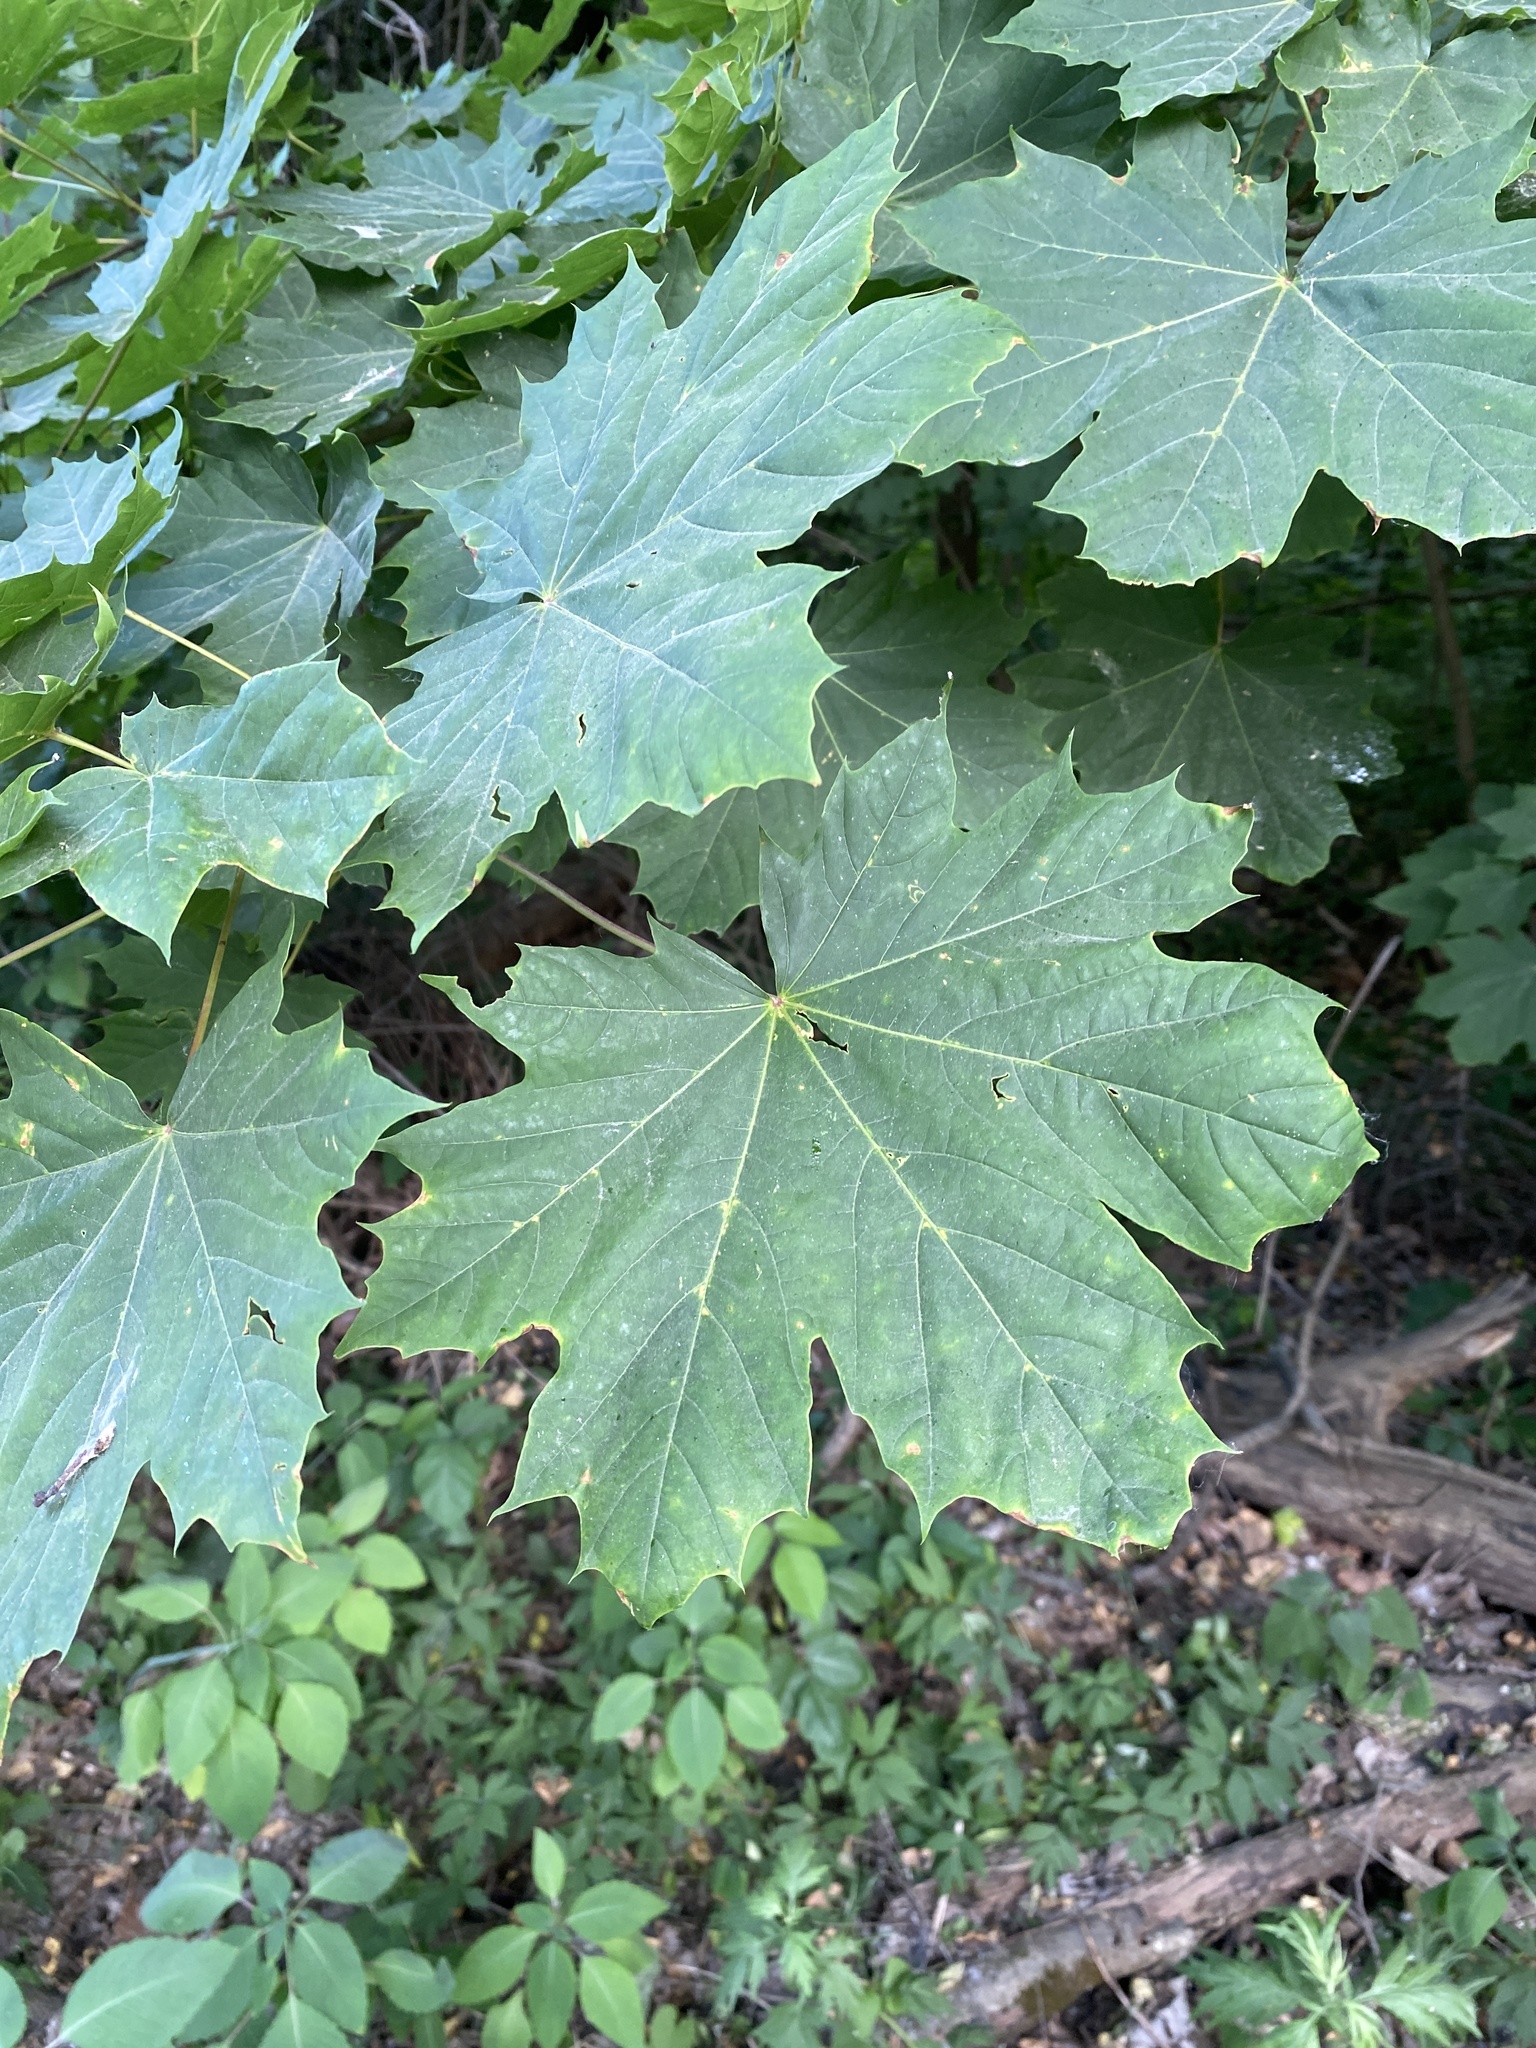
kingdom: Plantae
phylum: Tracheophyta
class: Magnoliopsida
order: Sapindales
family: Sapindaceae
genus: Acer
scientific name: Acer platanoides
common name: Norway maple
